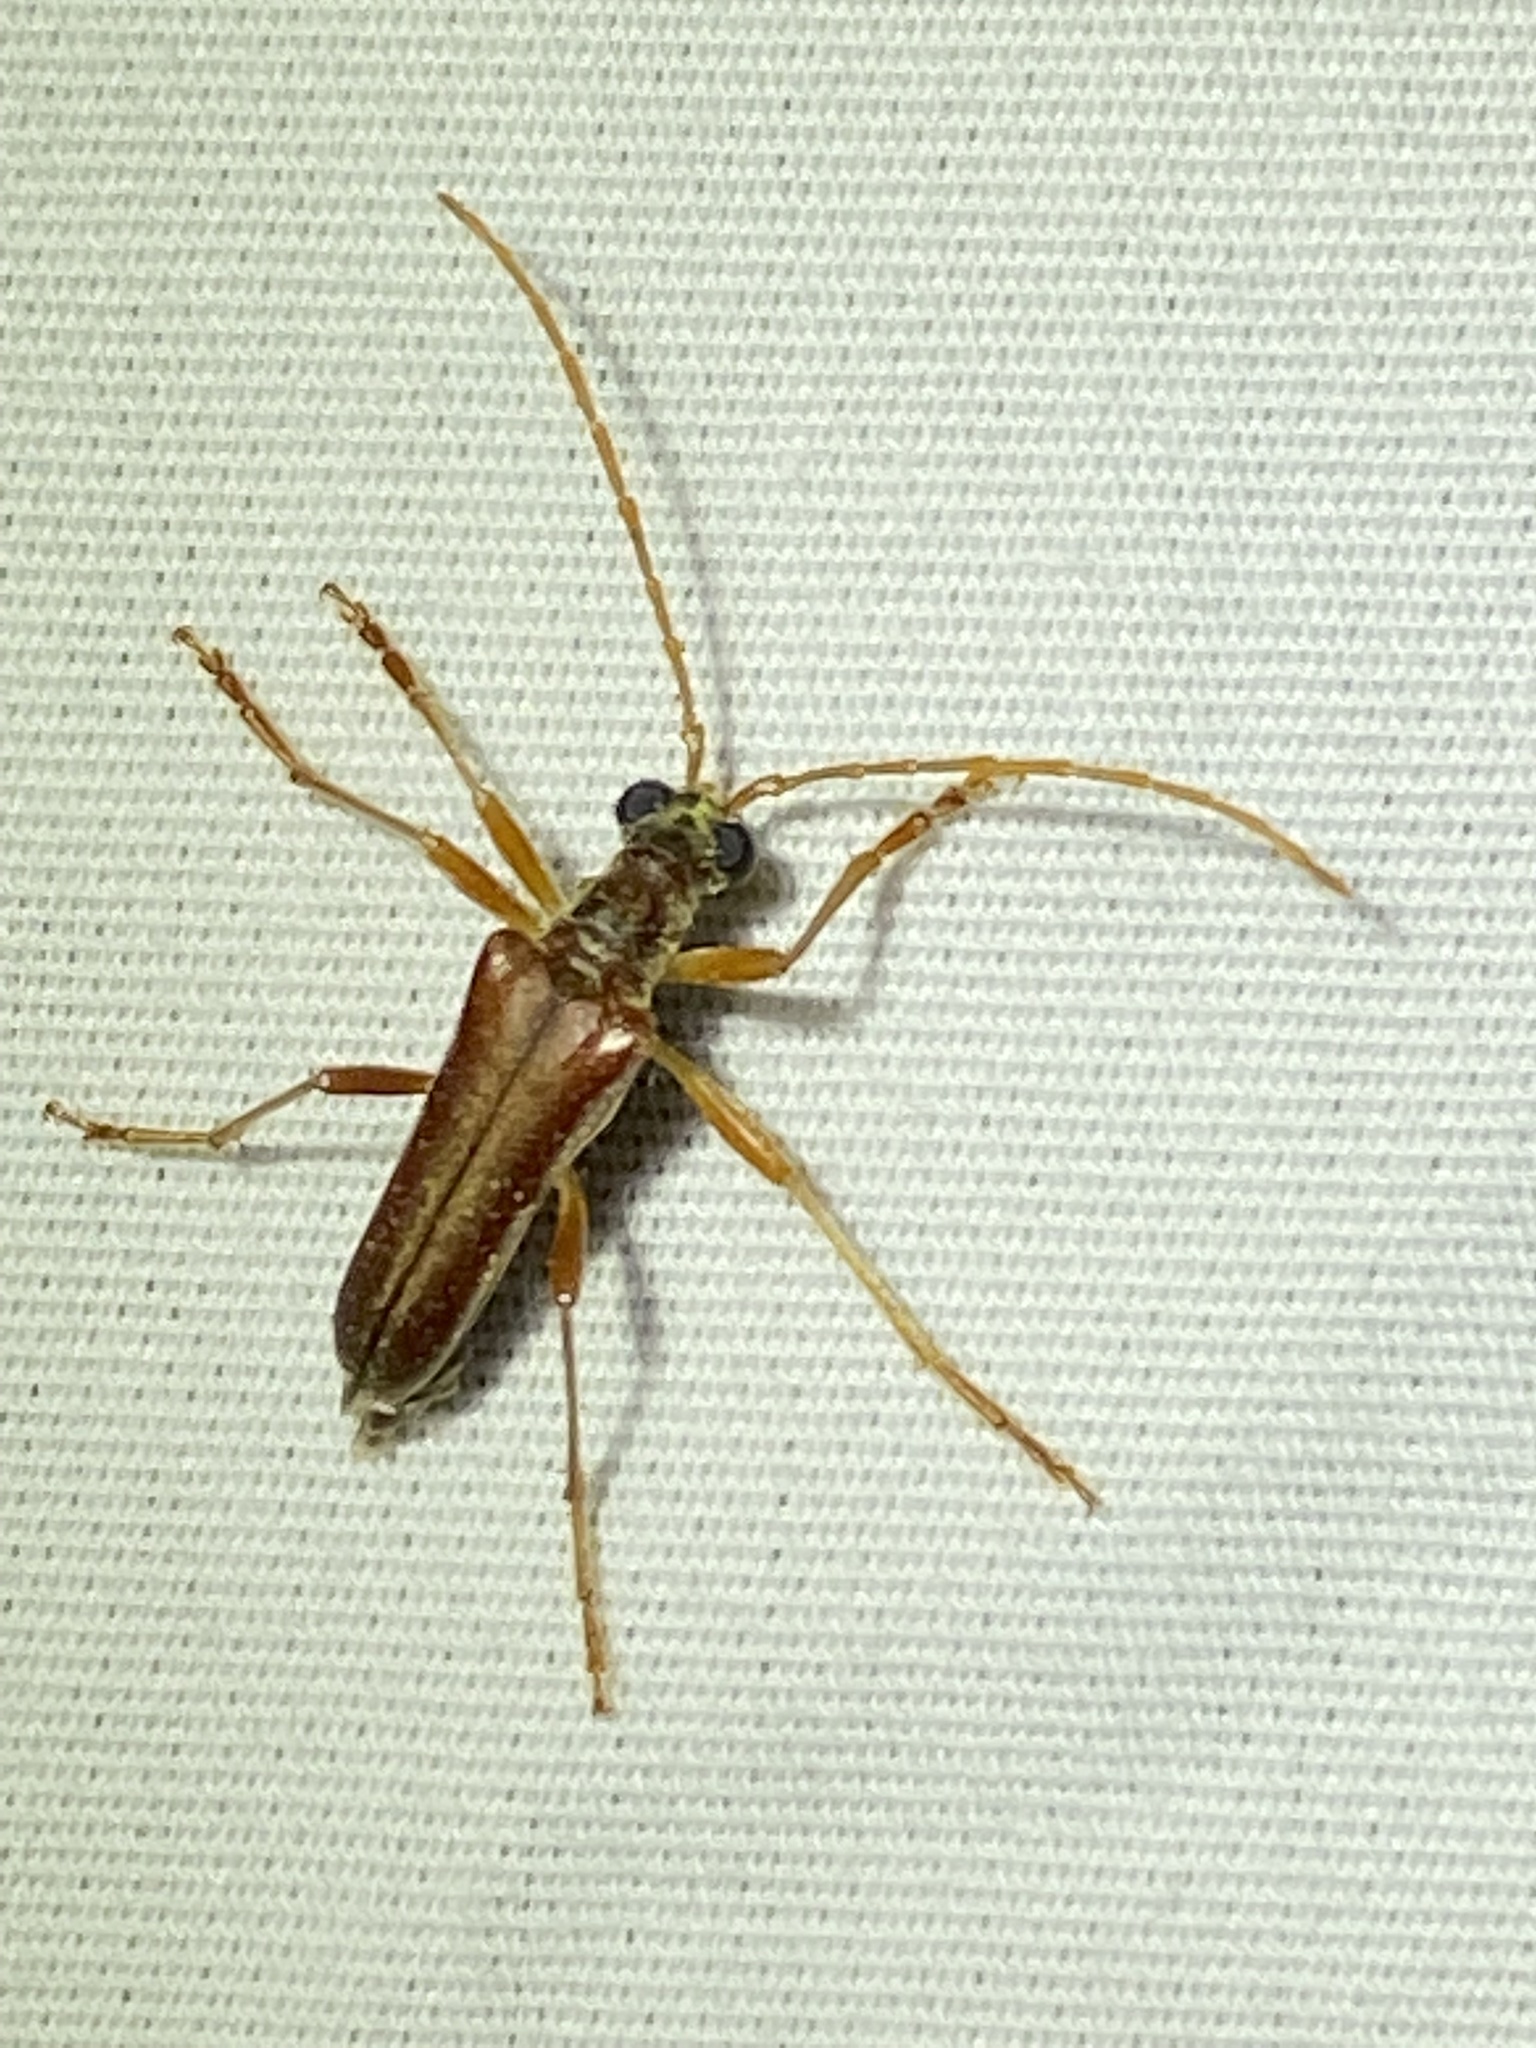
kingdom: Animalia
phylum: Arthropoda
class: Insecta
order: Coleoptera
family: Cerambycidae
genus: Stenocorus
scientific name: Stenocorus cinnamopterus
